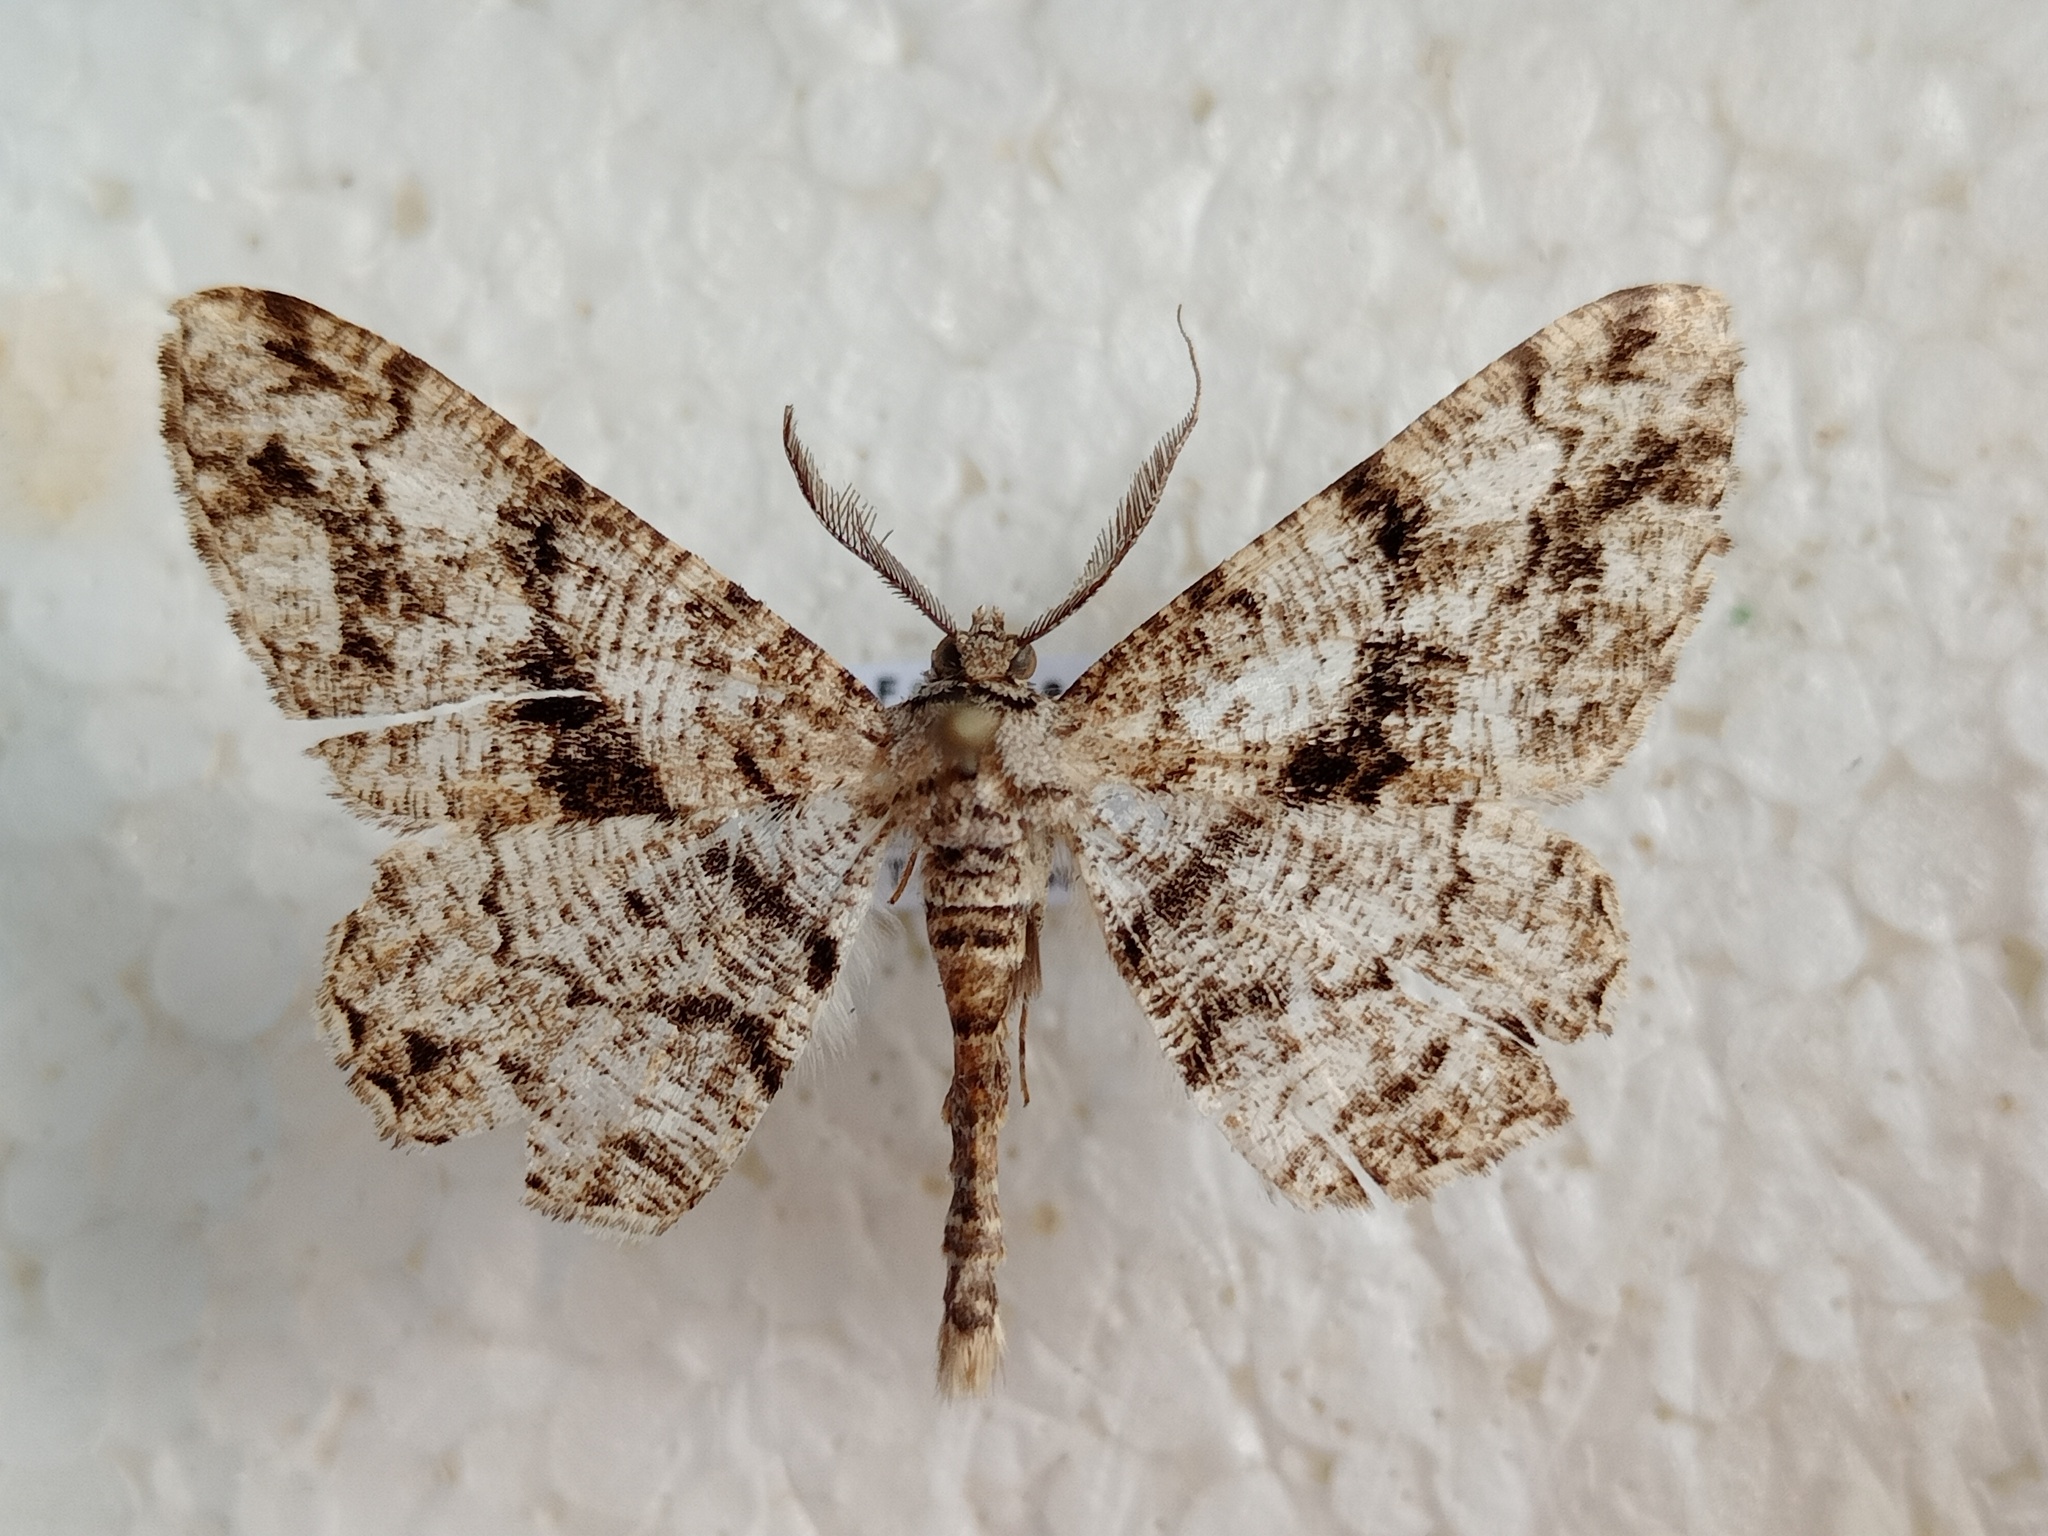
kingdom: Animalia
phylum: Arthropoda
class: Insecta
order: Lepidoptera
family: Geometridae
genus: Peribatodes
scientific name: Peribatodes umbraria
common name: Olive-tree beauty
